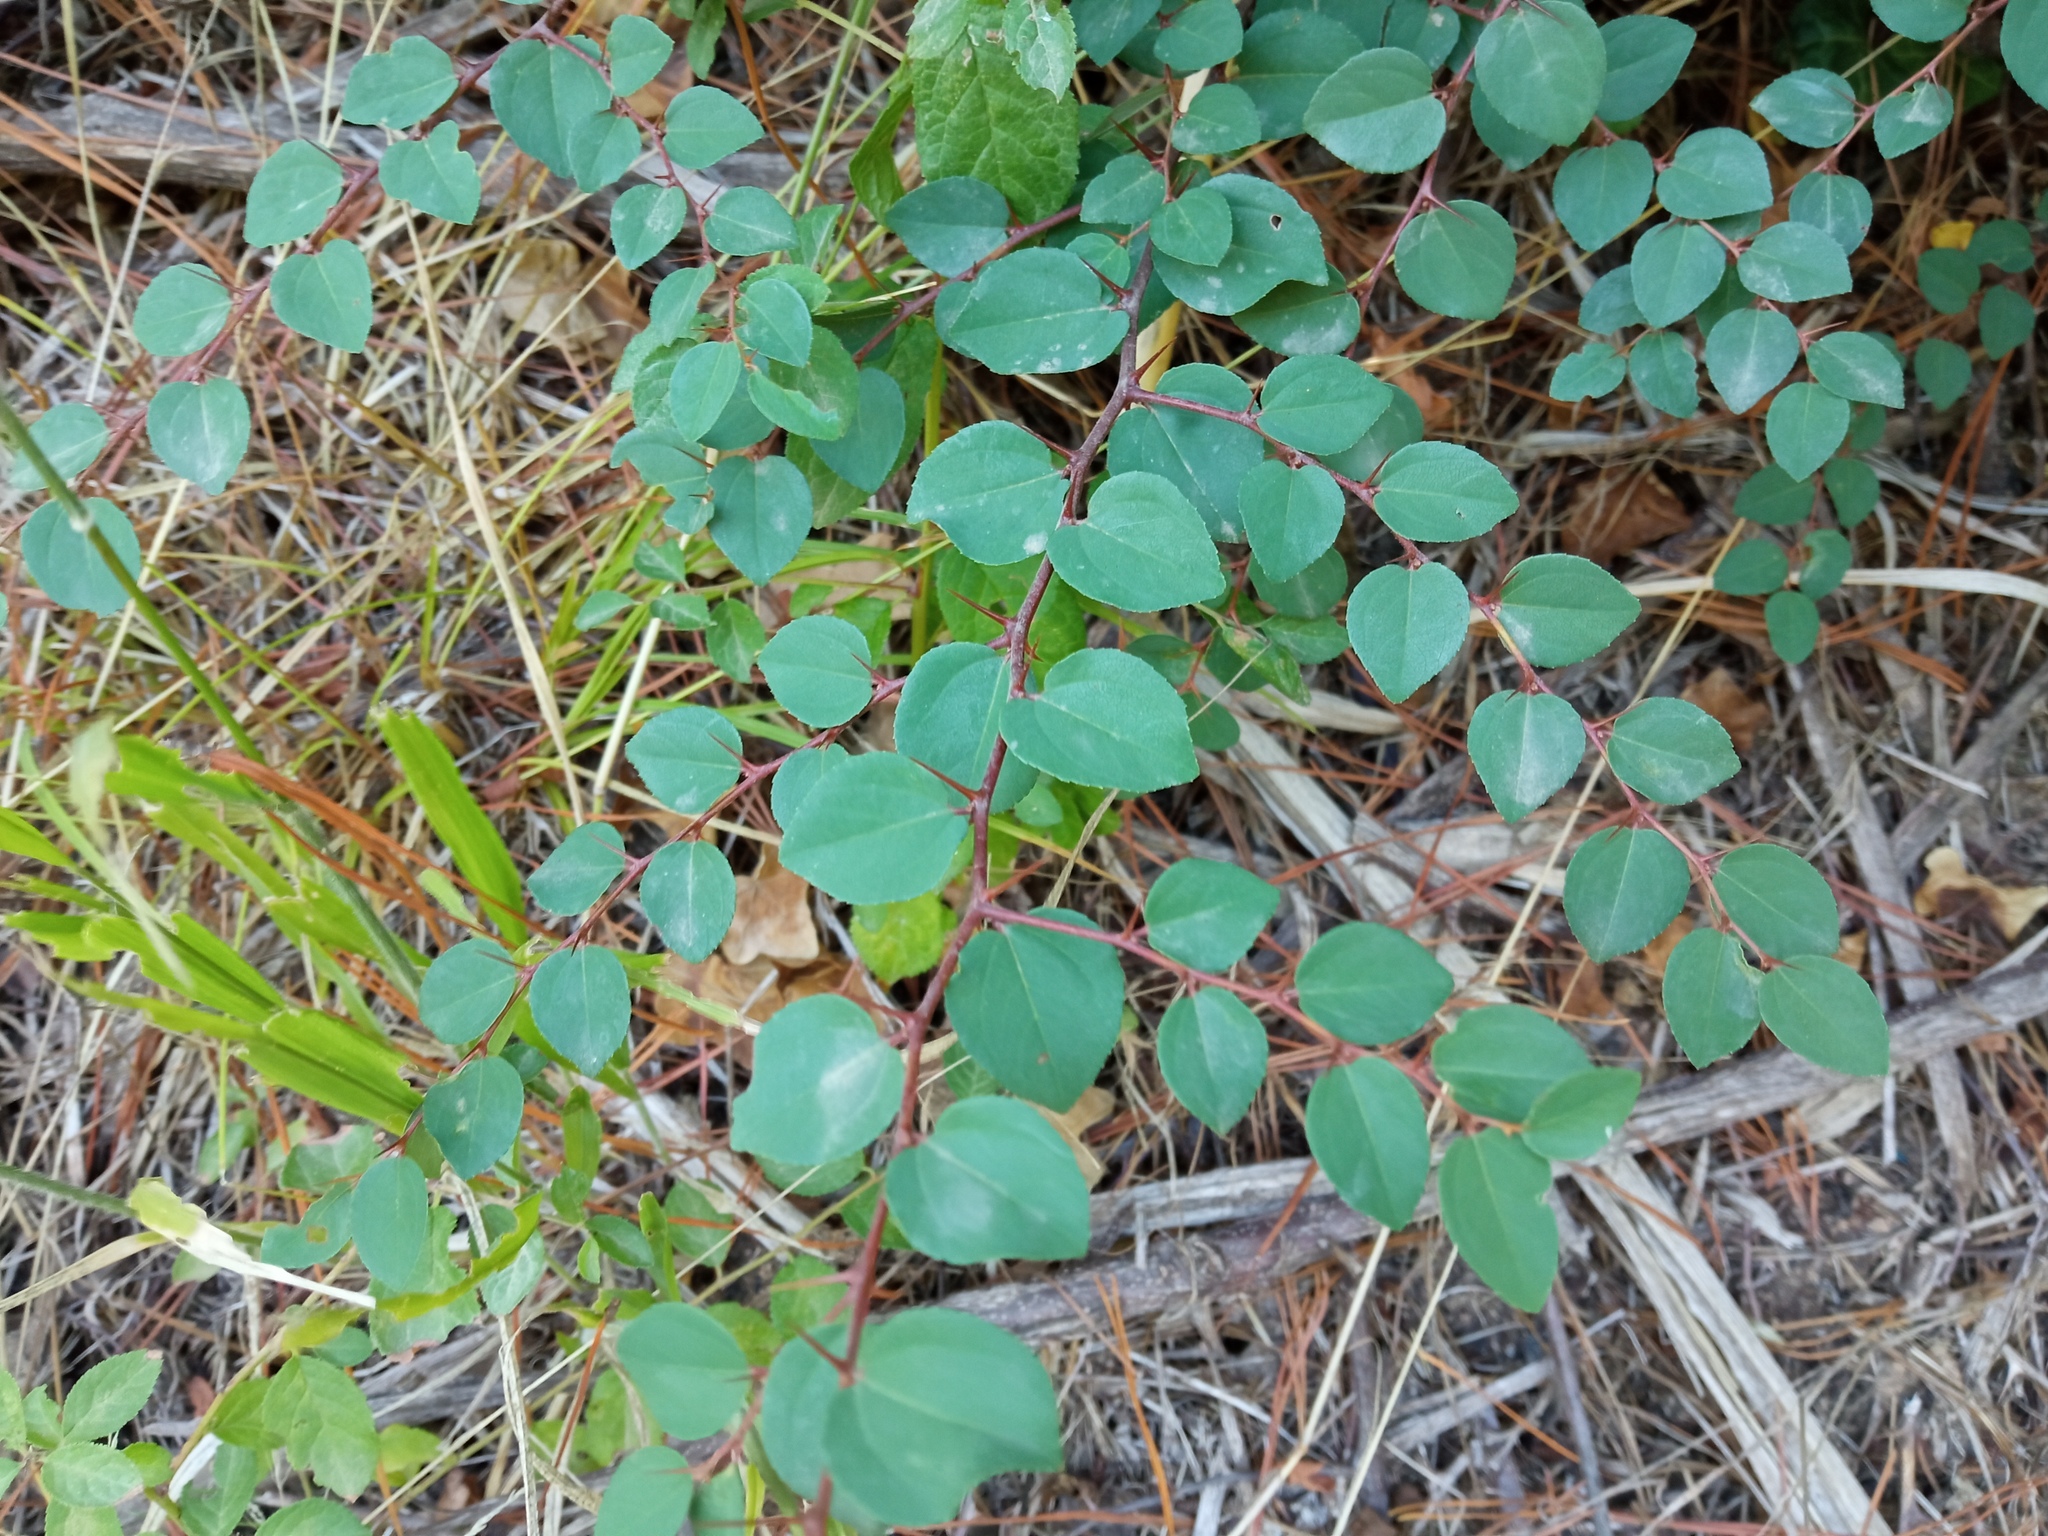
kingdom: Plantae
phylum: Tracheophyta
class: Magnoliopsida
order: Rosales
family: Rhamnaceae
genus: Paliurus
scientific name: Paliurus spina-christi
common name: Jeruselem thorn
